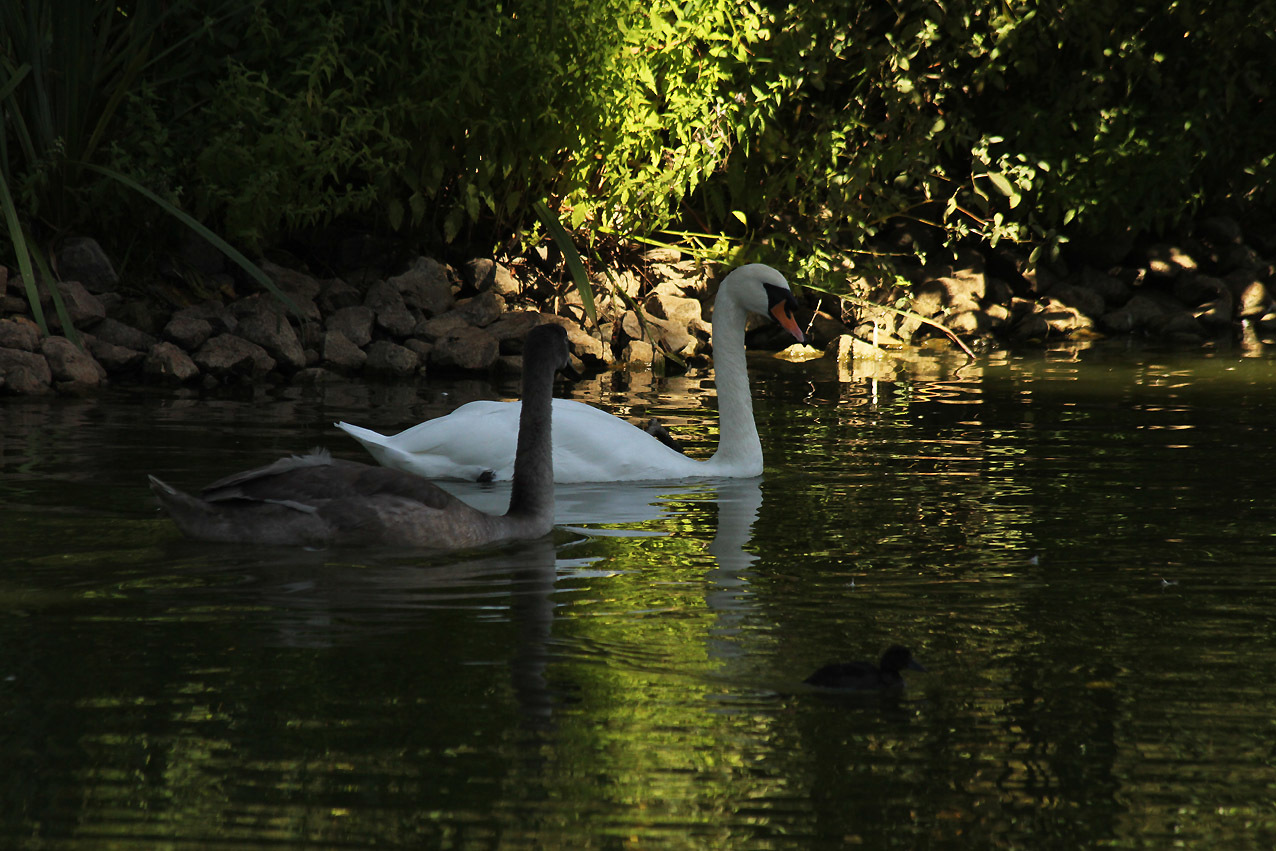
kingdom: Animalia
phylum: Chordata
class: Aves
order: Anseriformes
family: Anatidae
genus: Cygnus
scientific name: Cygnus olor
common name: Mute swan
